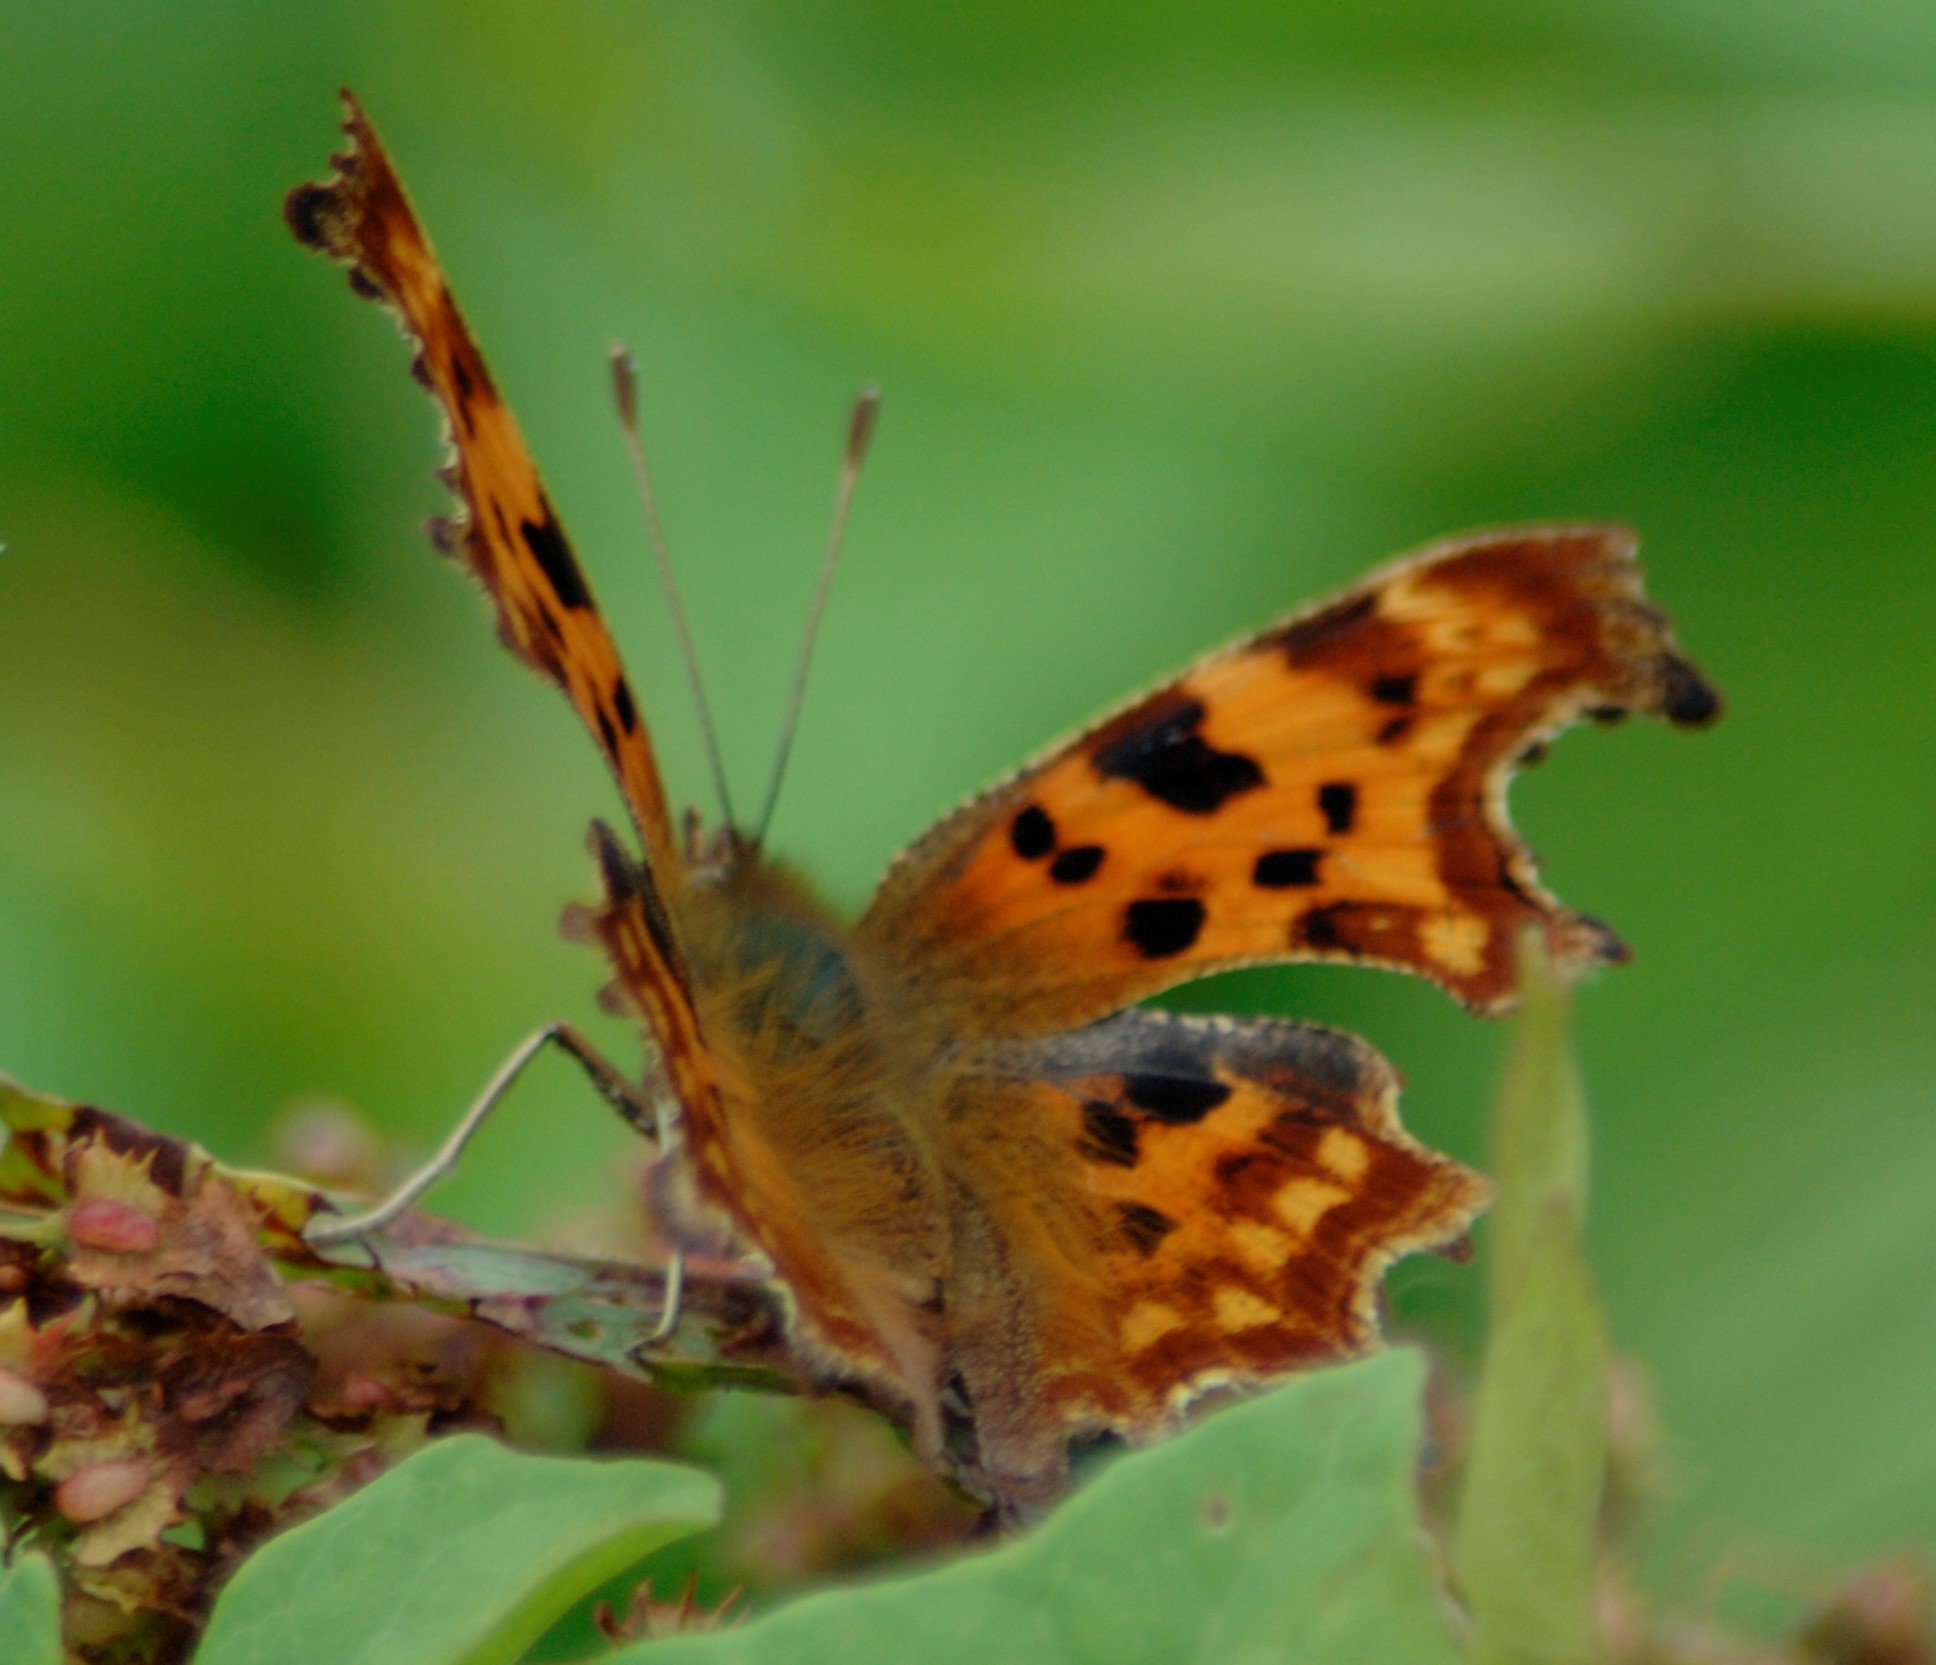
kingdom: Animalia
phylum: Arthropoda
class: Insecta
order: Lepidoptera
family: Nymphalidae
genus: Polygonia
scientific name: Polygonia c-album
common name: Comma
